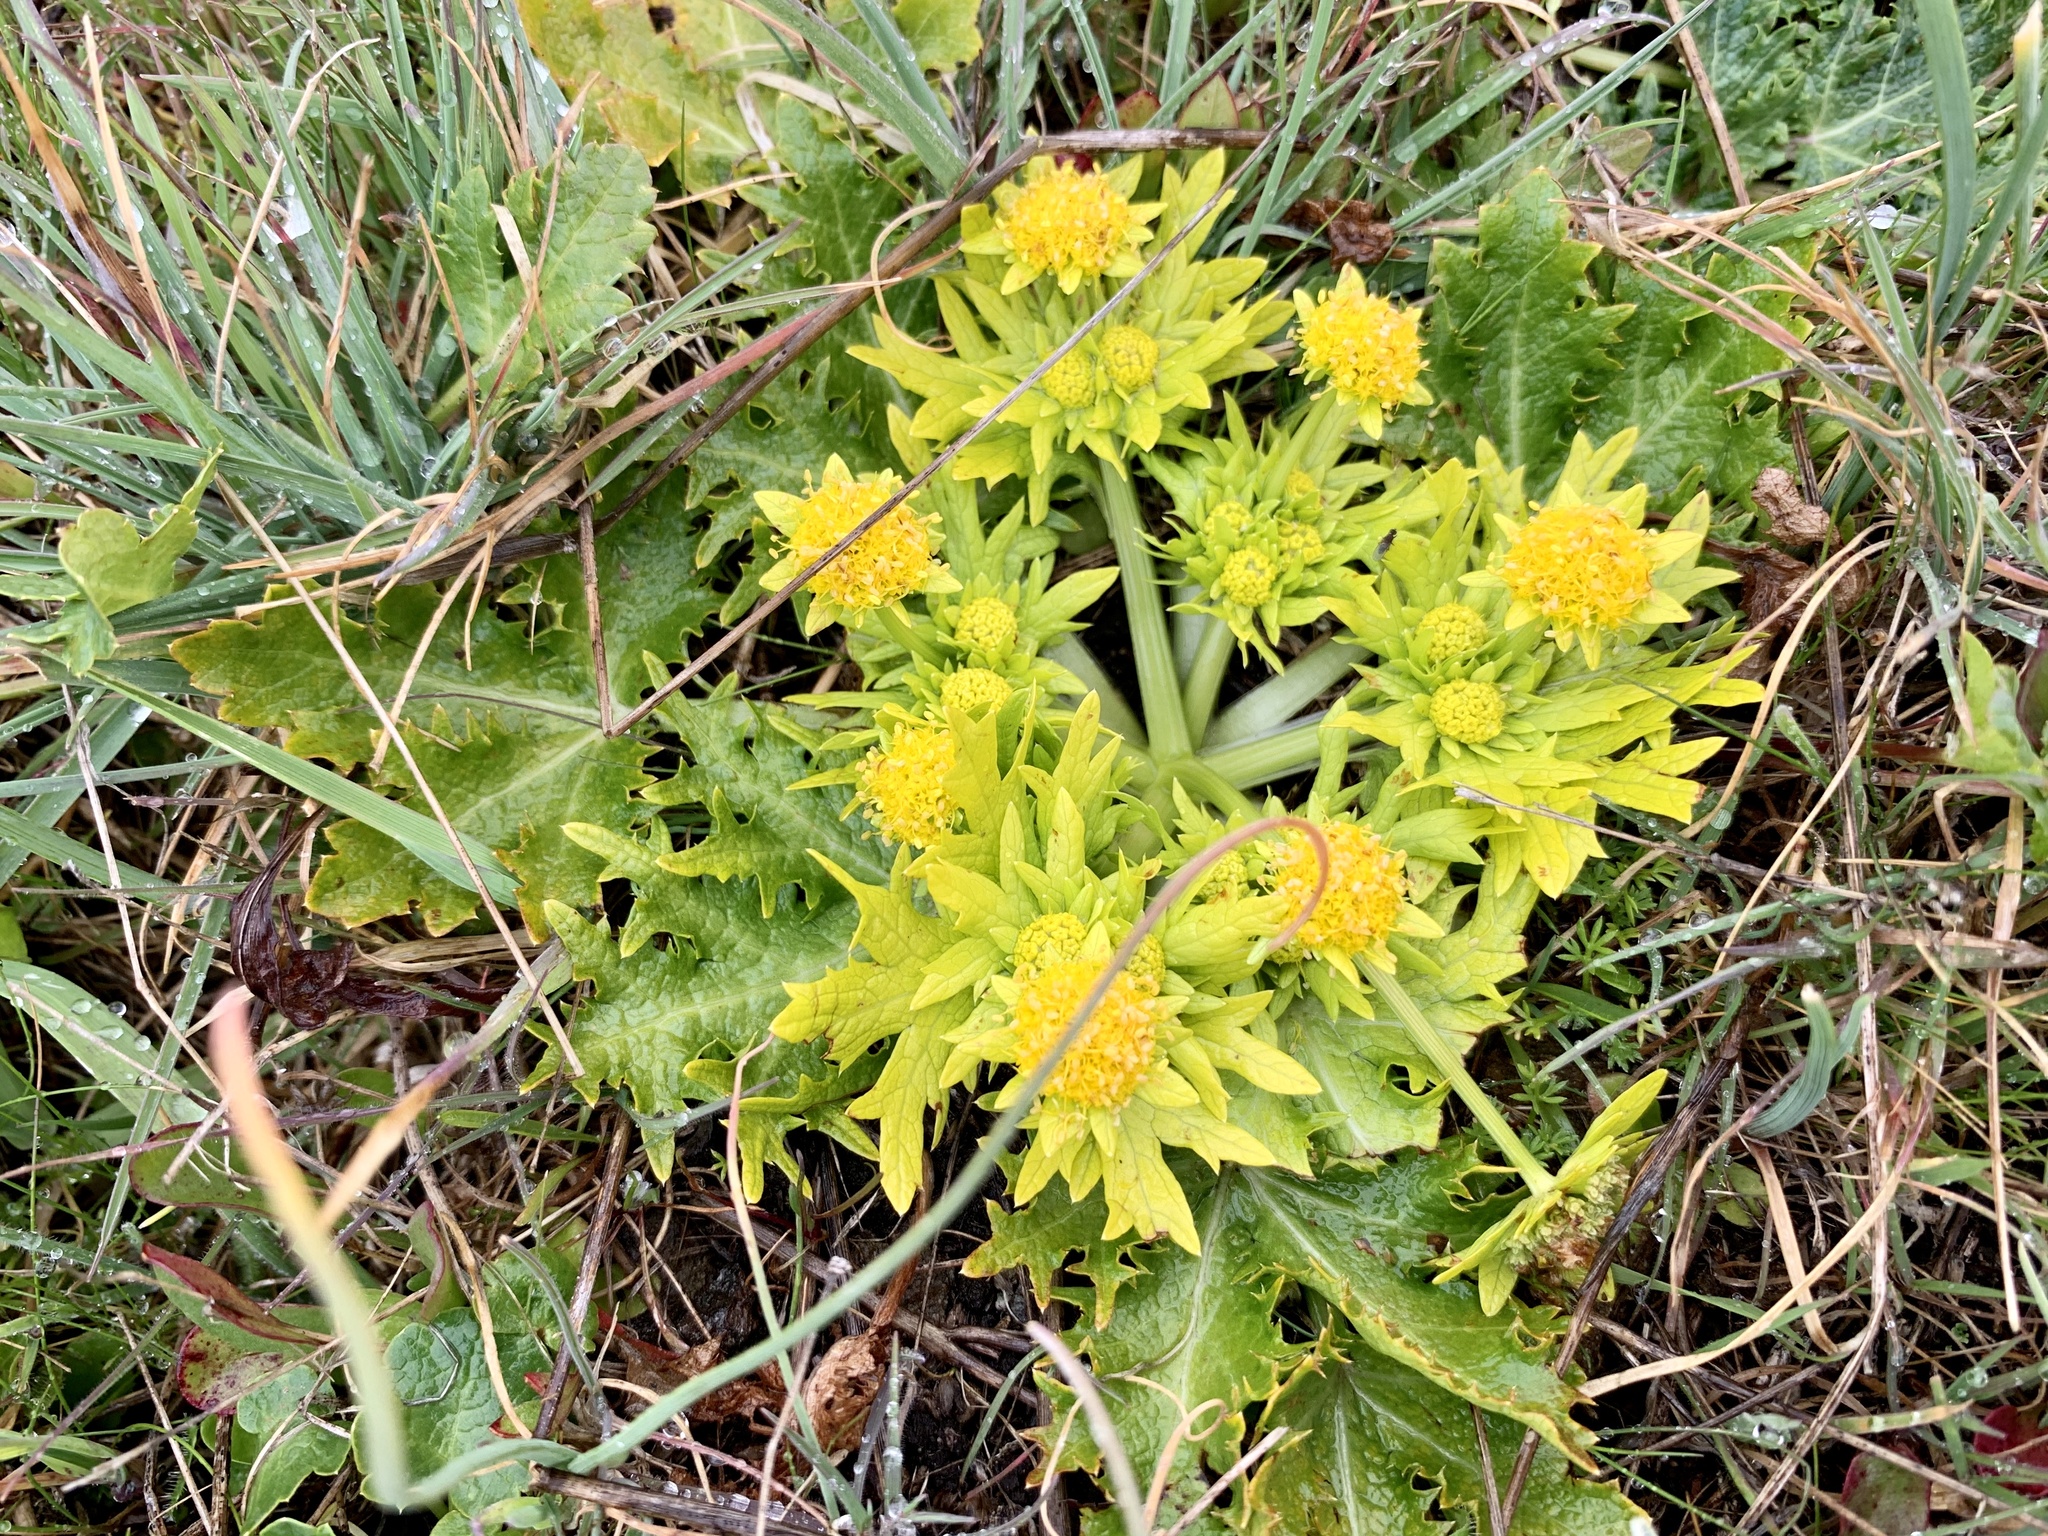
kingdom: Plantae
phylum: Tracheophyta
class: Magnoliopsida
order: Apiales
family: Apiaceae
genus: Sanicula
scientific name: Sanicula arctopoides
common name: Footsteps-of-spring
